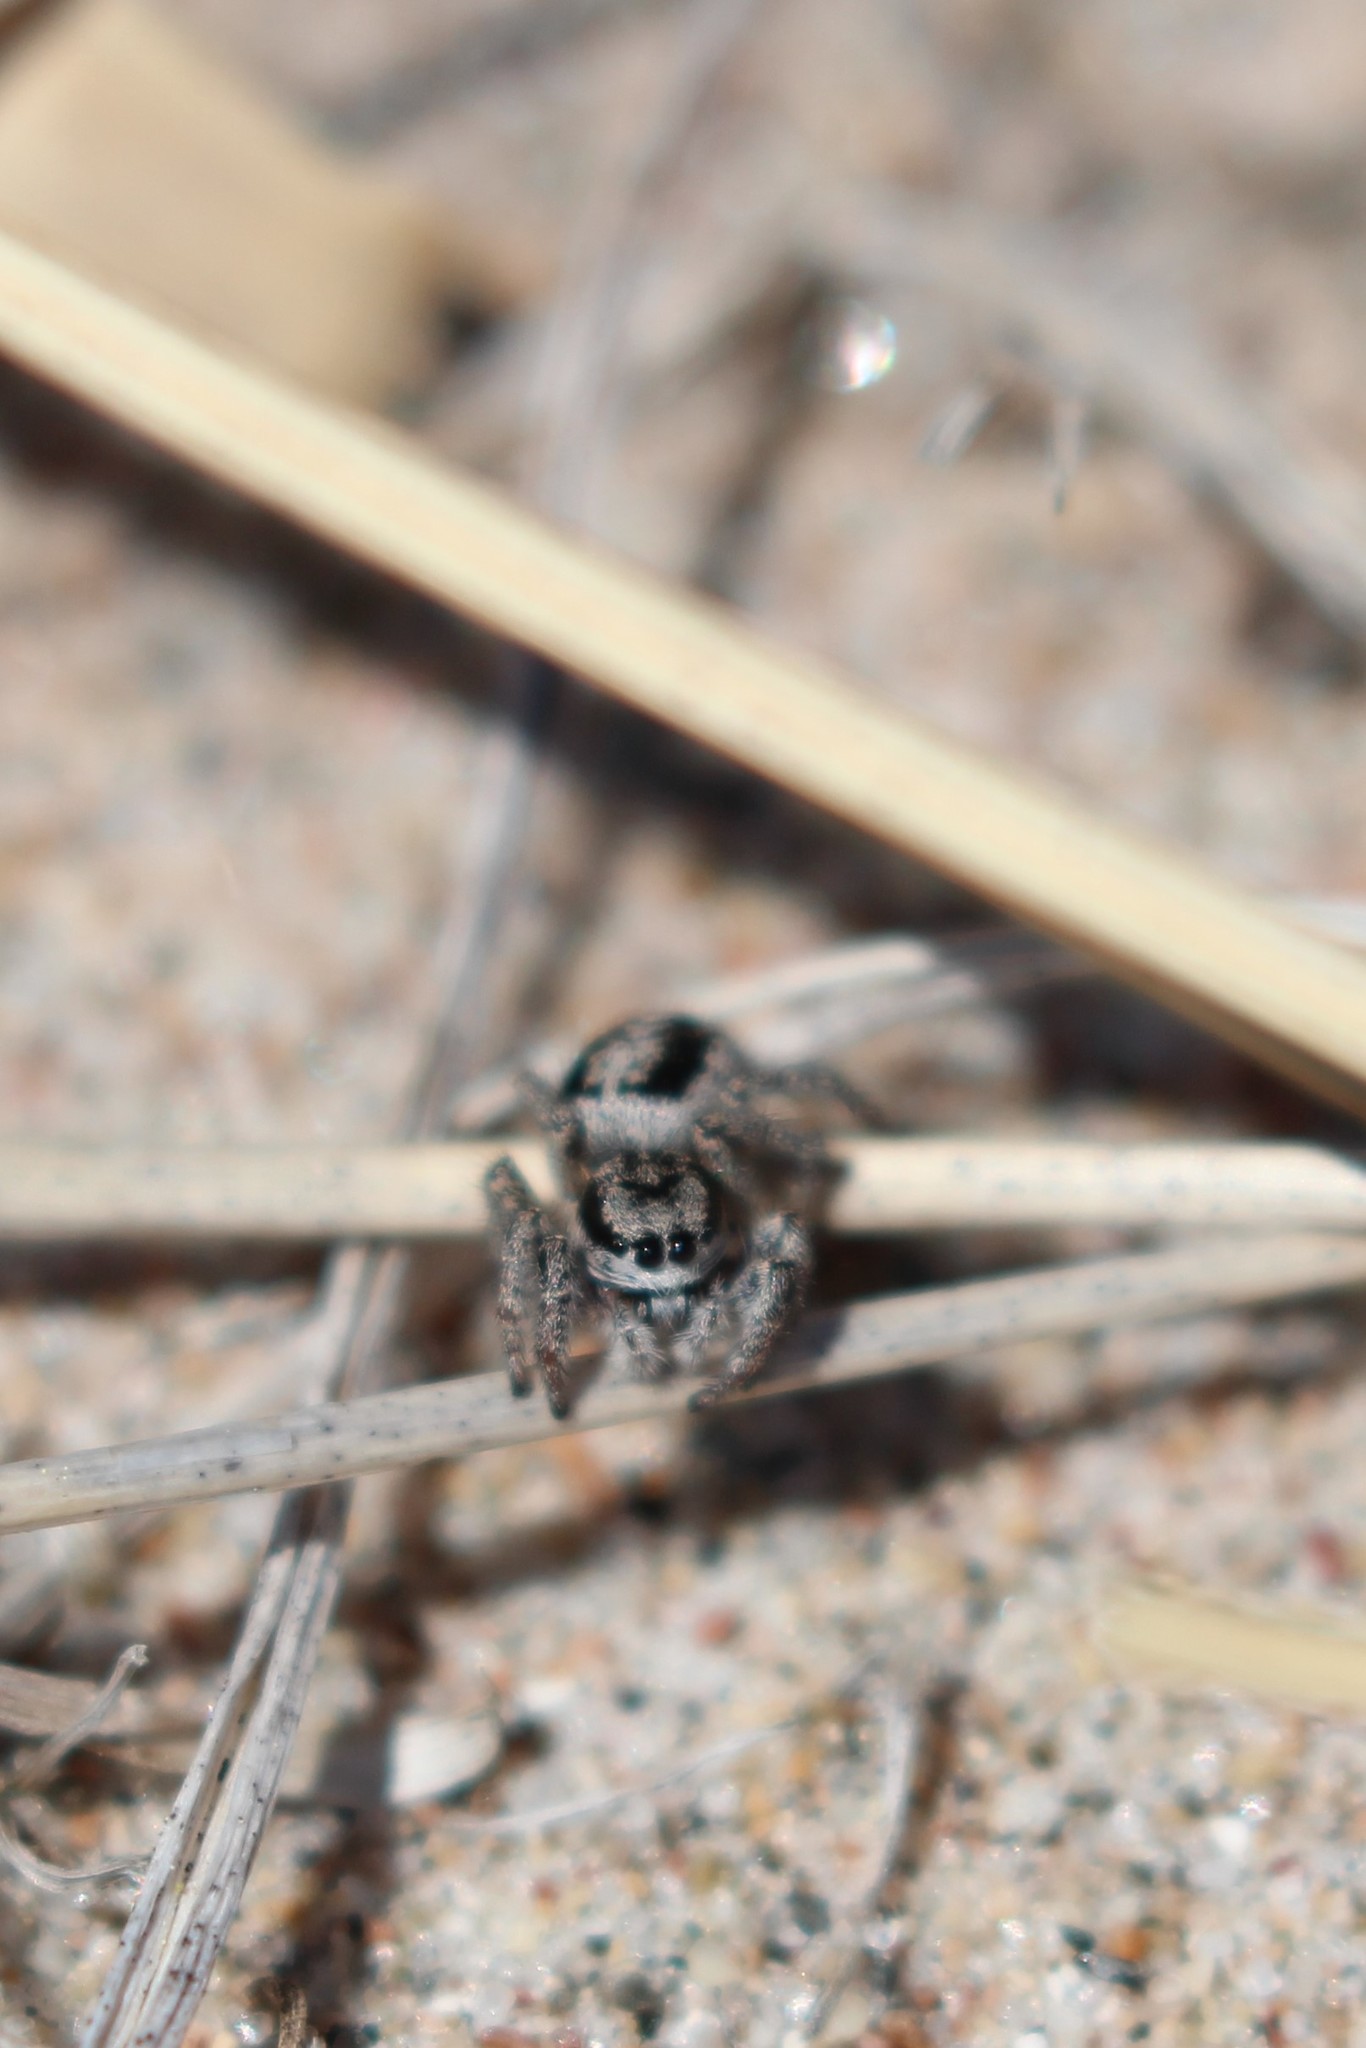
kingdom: Animalia
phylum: Arthropoda
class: Arachnida
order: Araneae
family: Salticidae
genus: Habronattus
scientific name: Habronattus americanus
